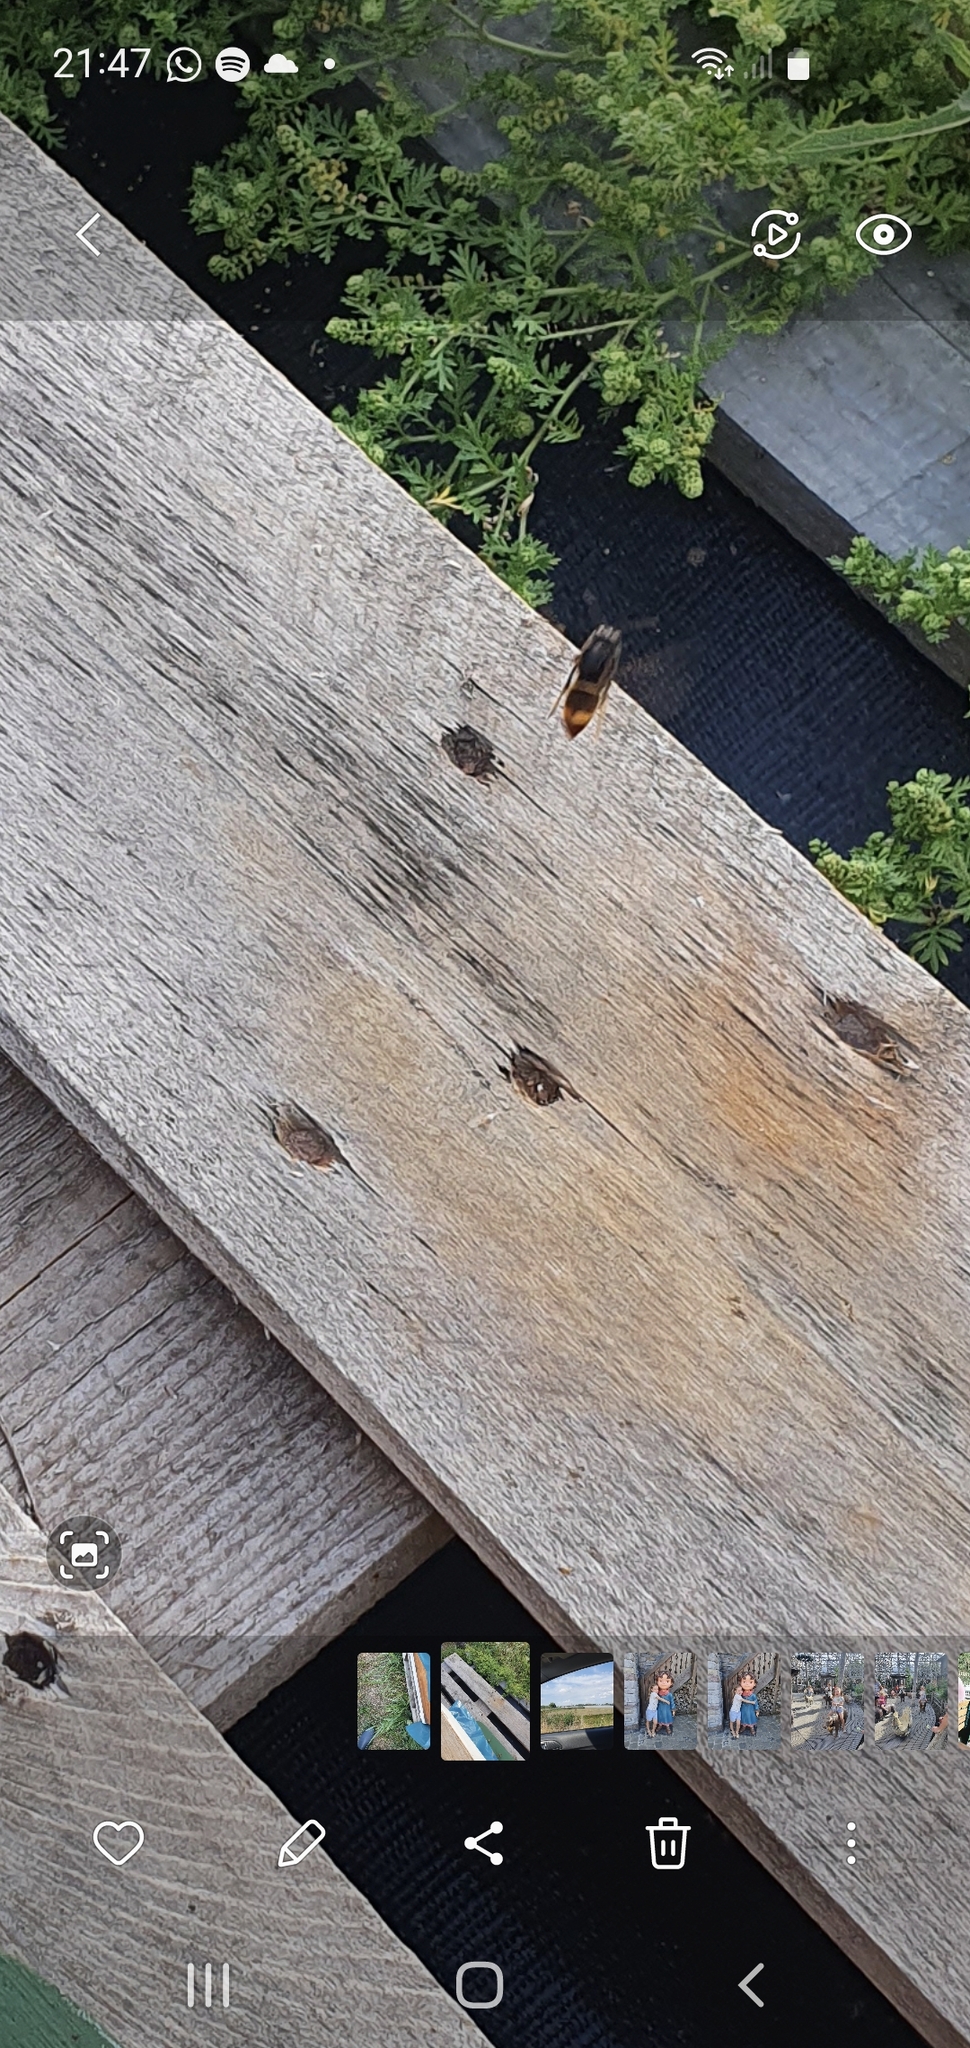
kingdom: Animalia
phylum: Arthropoda
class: Insecta
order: Hymenoptera
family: Vespidae
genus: Vespa
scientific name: Vespa velutina
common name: Asian hornet
